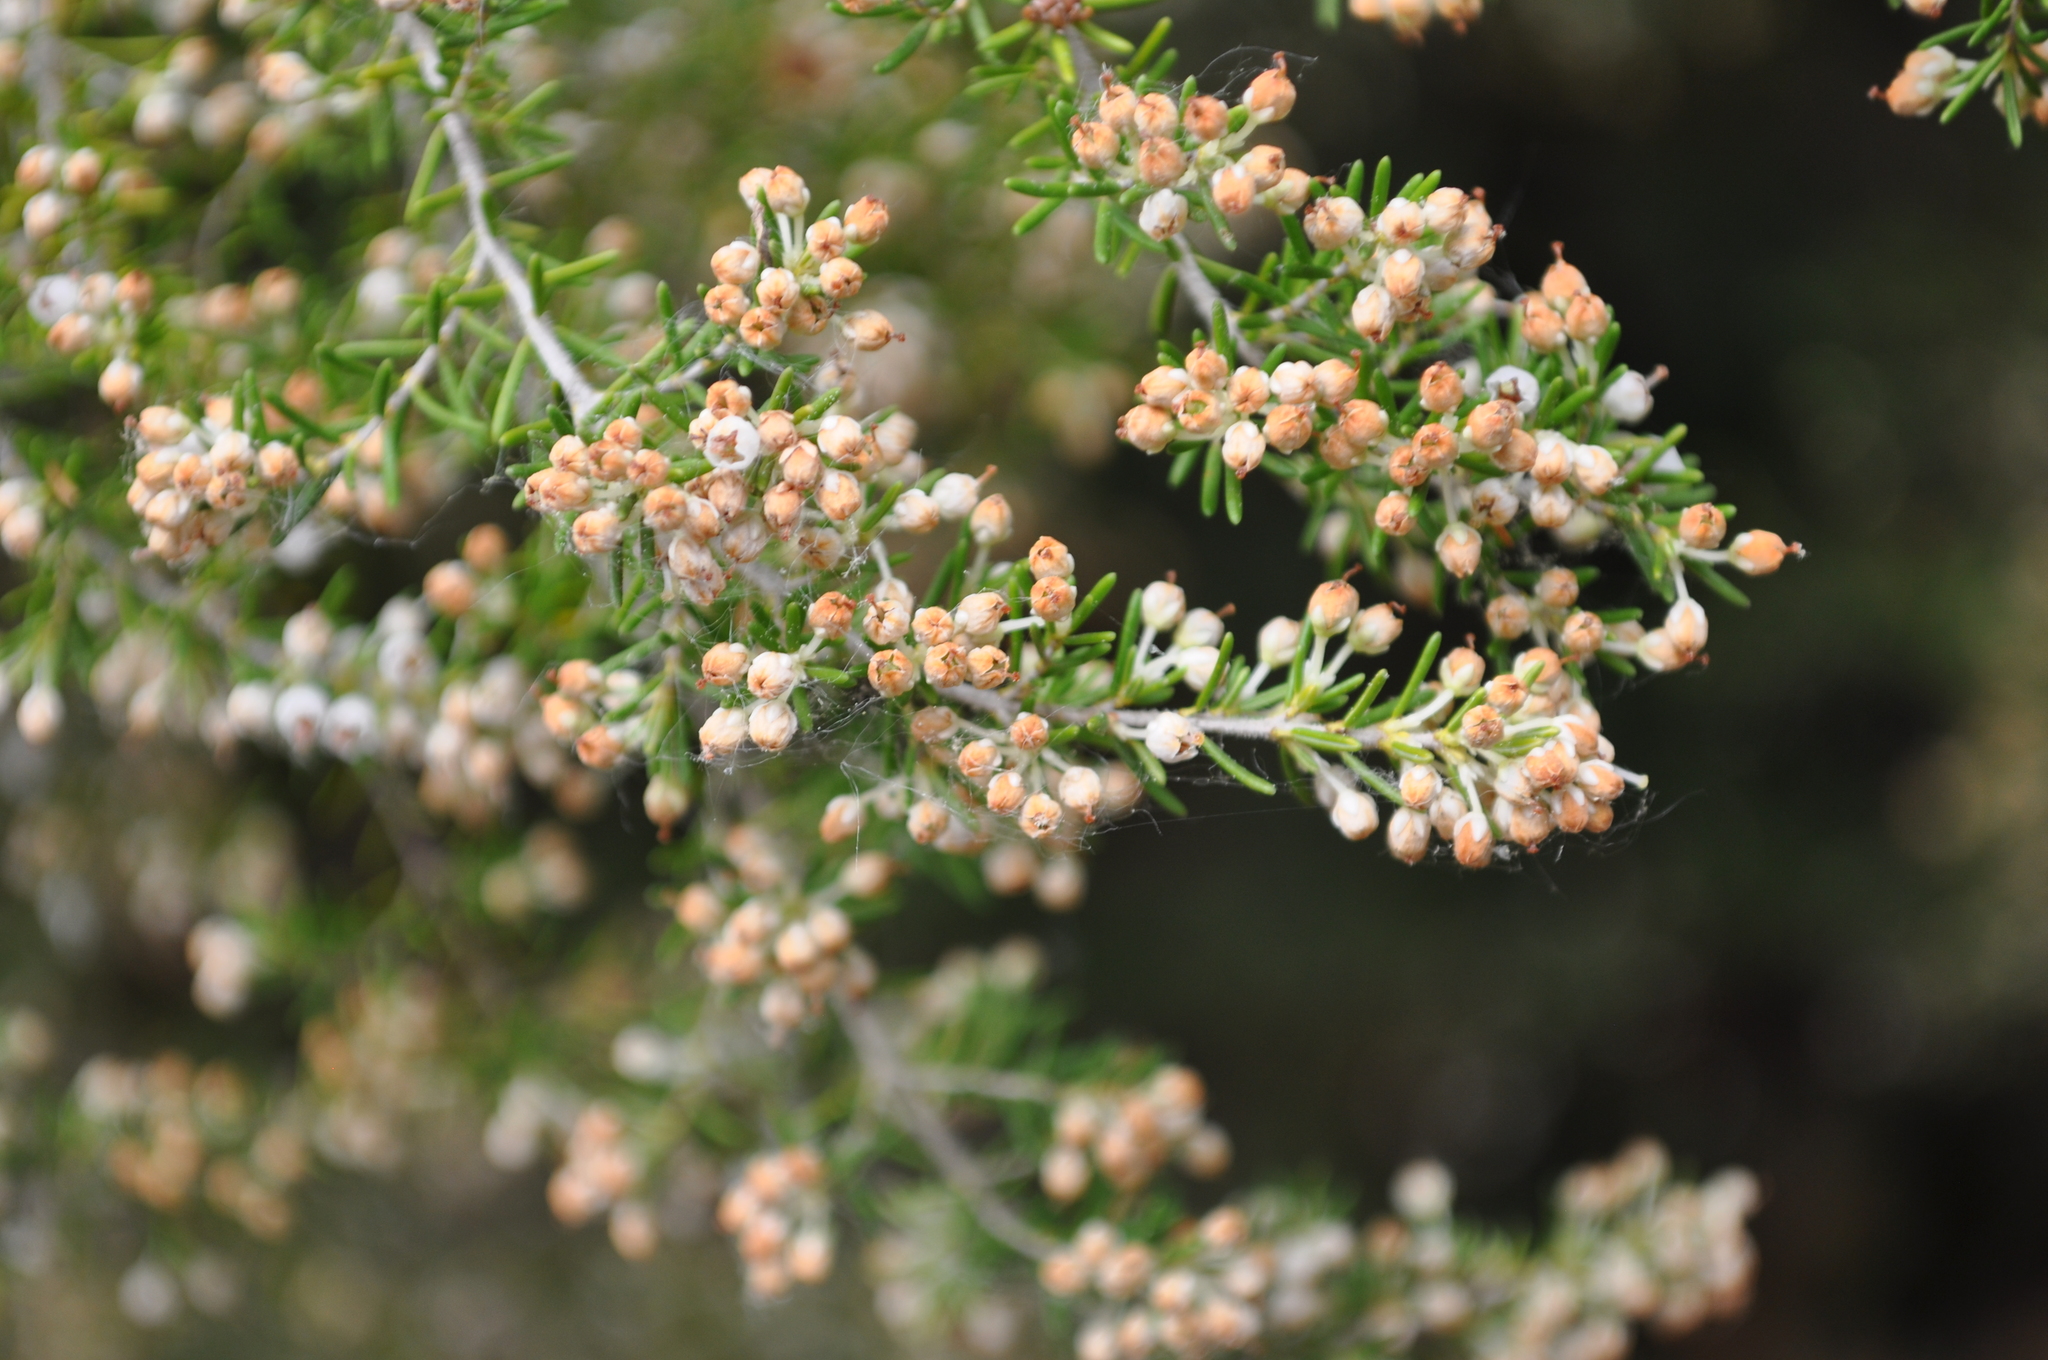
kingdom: Plantae
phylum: Tracheophyta
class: Magnoliopsida
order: Ericales
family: Ericaceae
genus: Erica
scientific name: Erica arborea
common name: Tree heath
